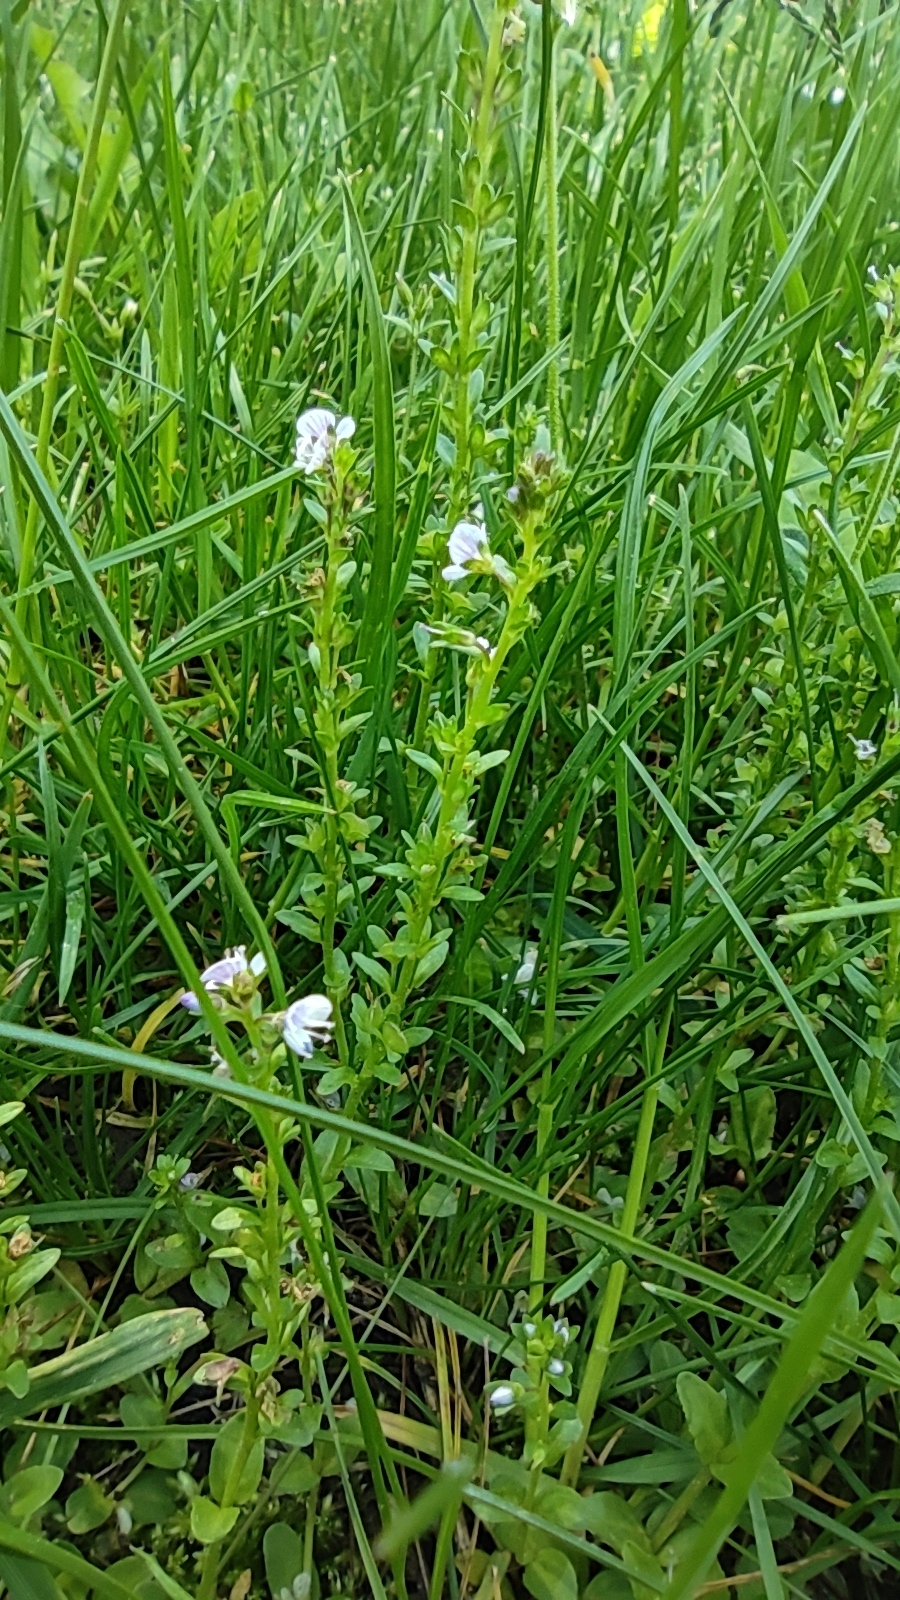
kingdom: Plantae
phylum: Tracheophyta
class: Magnoliopsida
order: Lamiales
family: Plantaginaceae
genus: Veronica
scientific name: Veronica serpyllifolia
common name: Thyme-leaved speedwell
